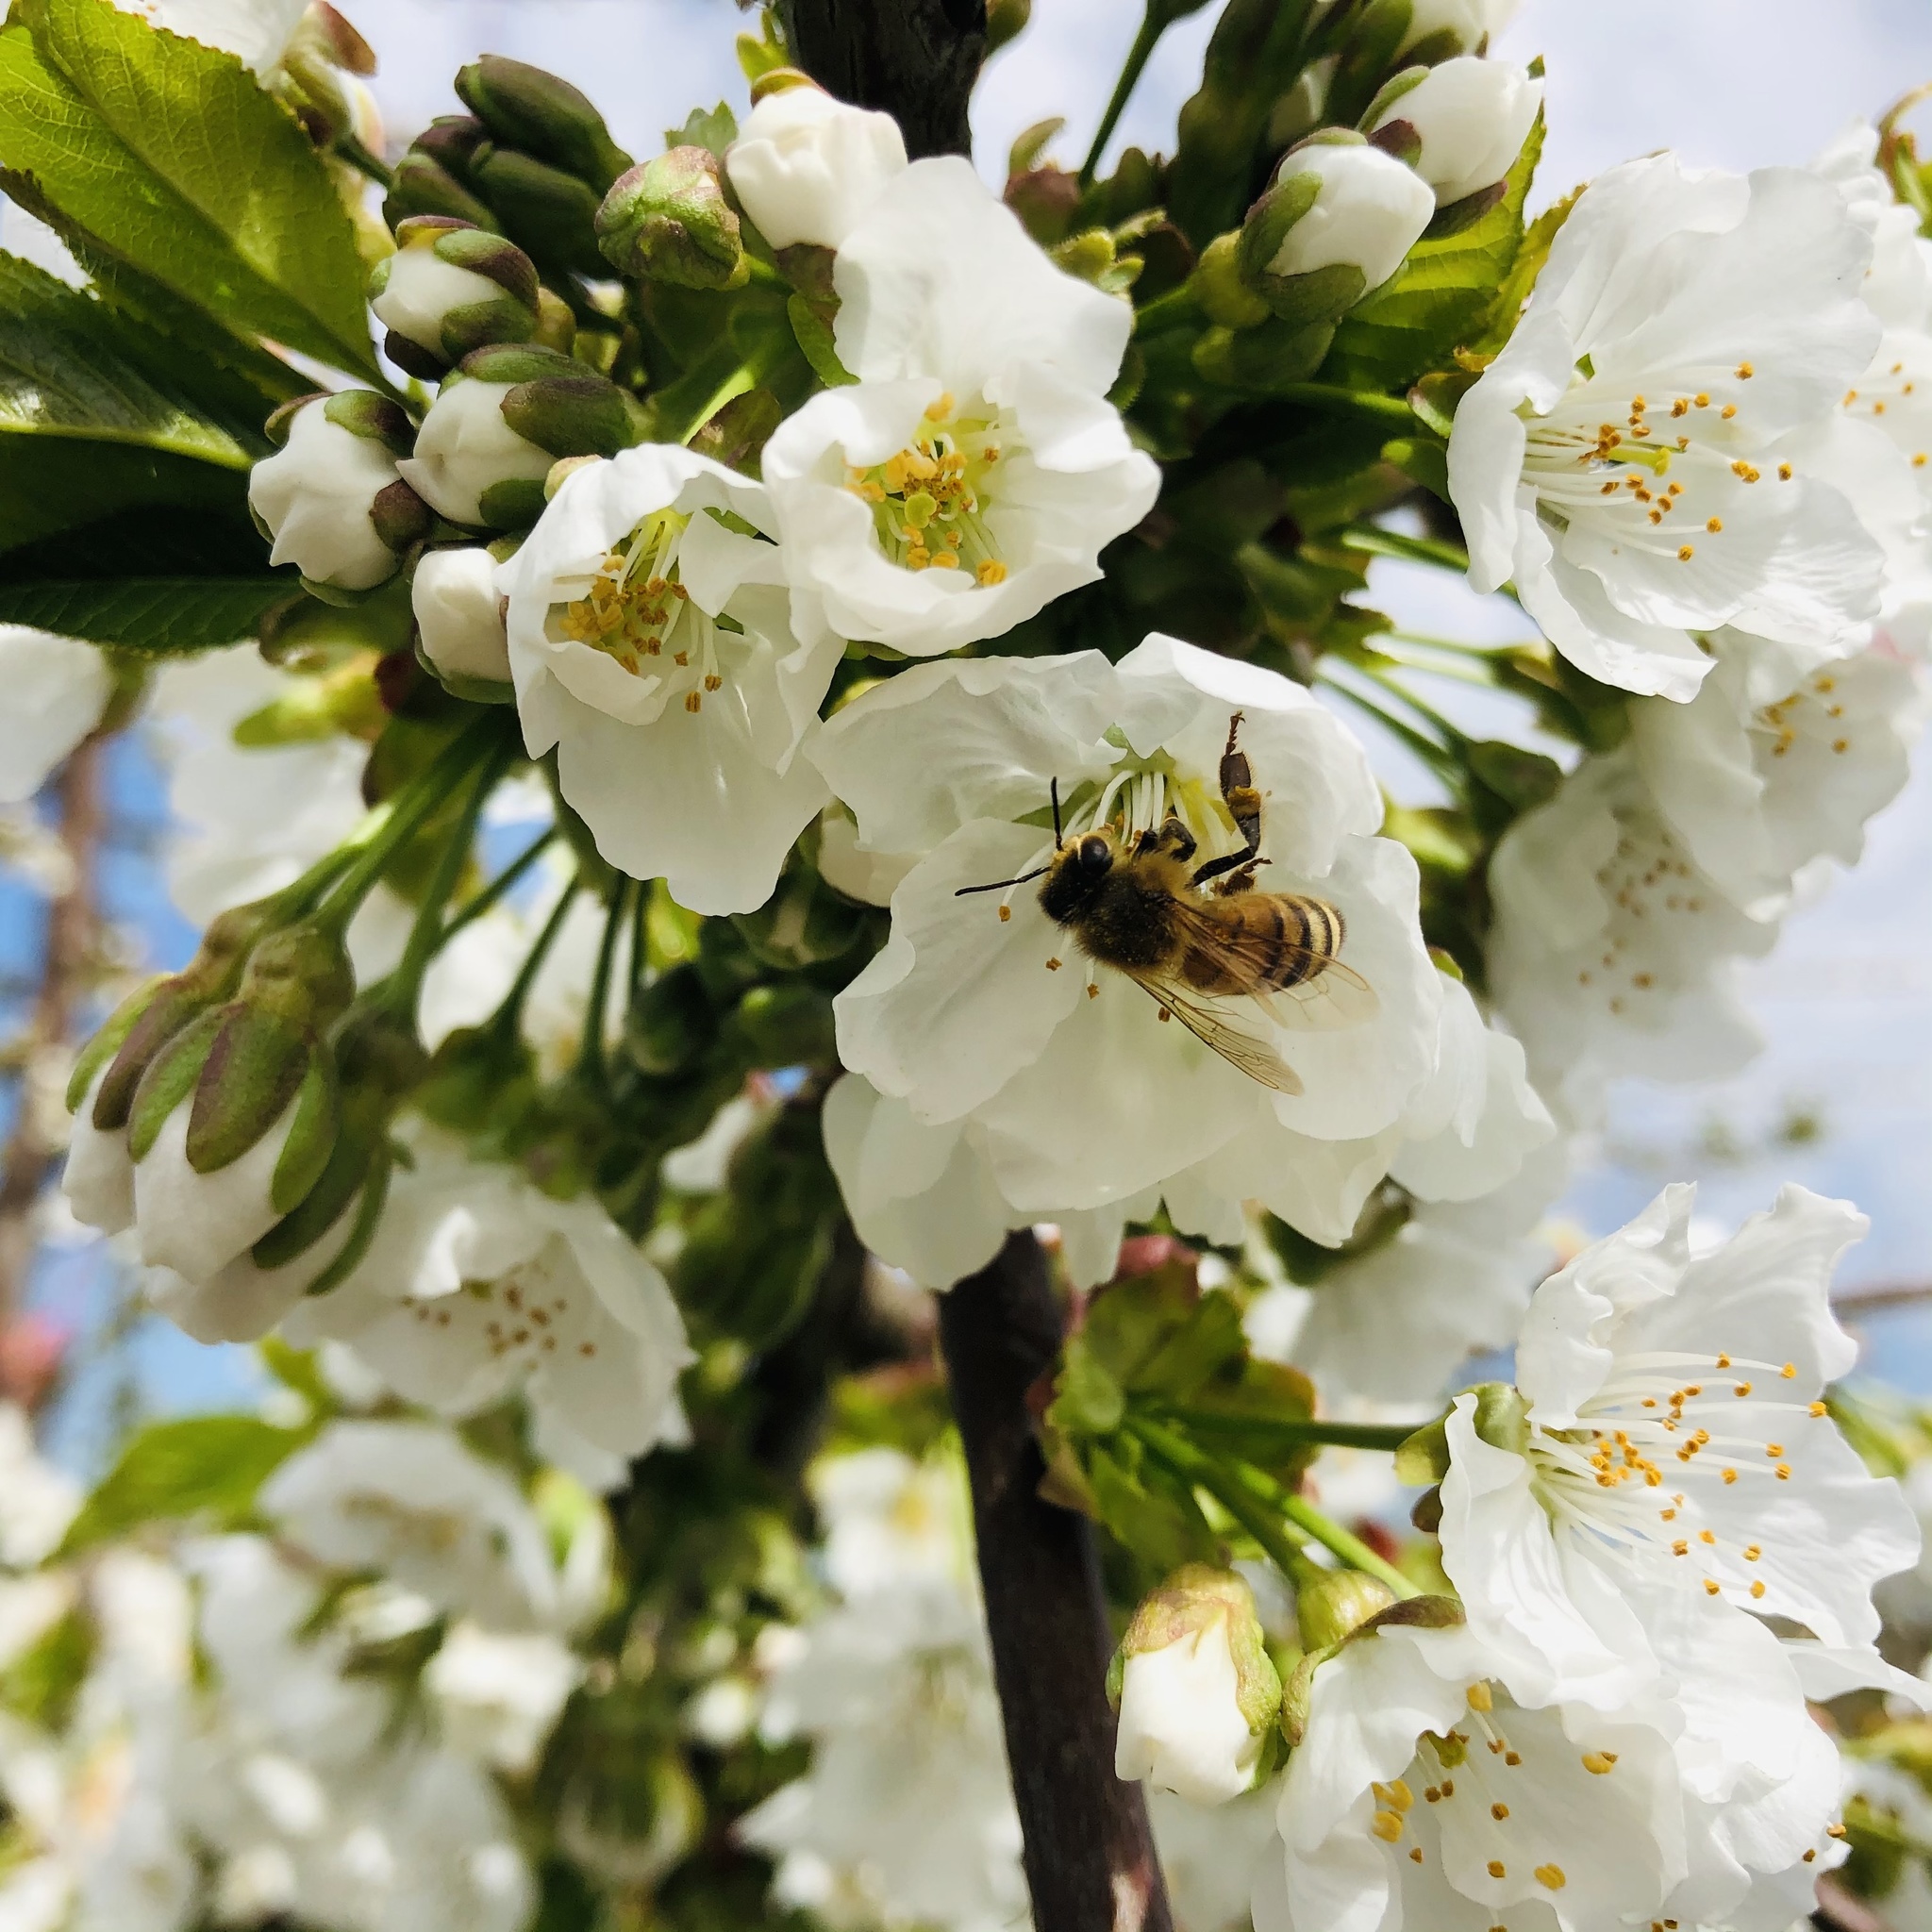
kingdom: Animalia
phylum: Arthropoda
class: Insecta
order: Hymenoptera
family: Apidae
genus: Apis
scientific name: Apis mellifera
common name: Honey bee
